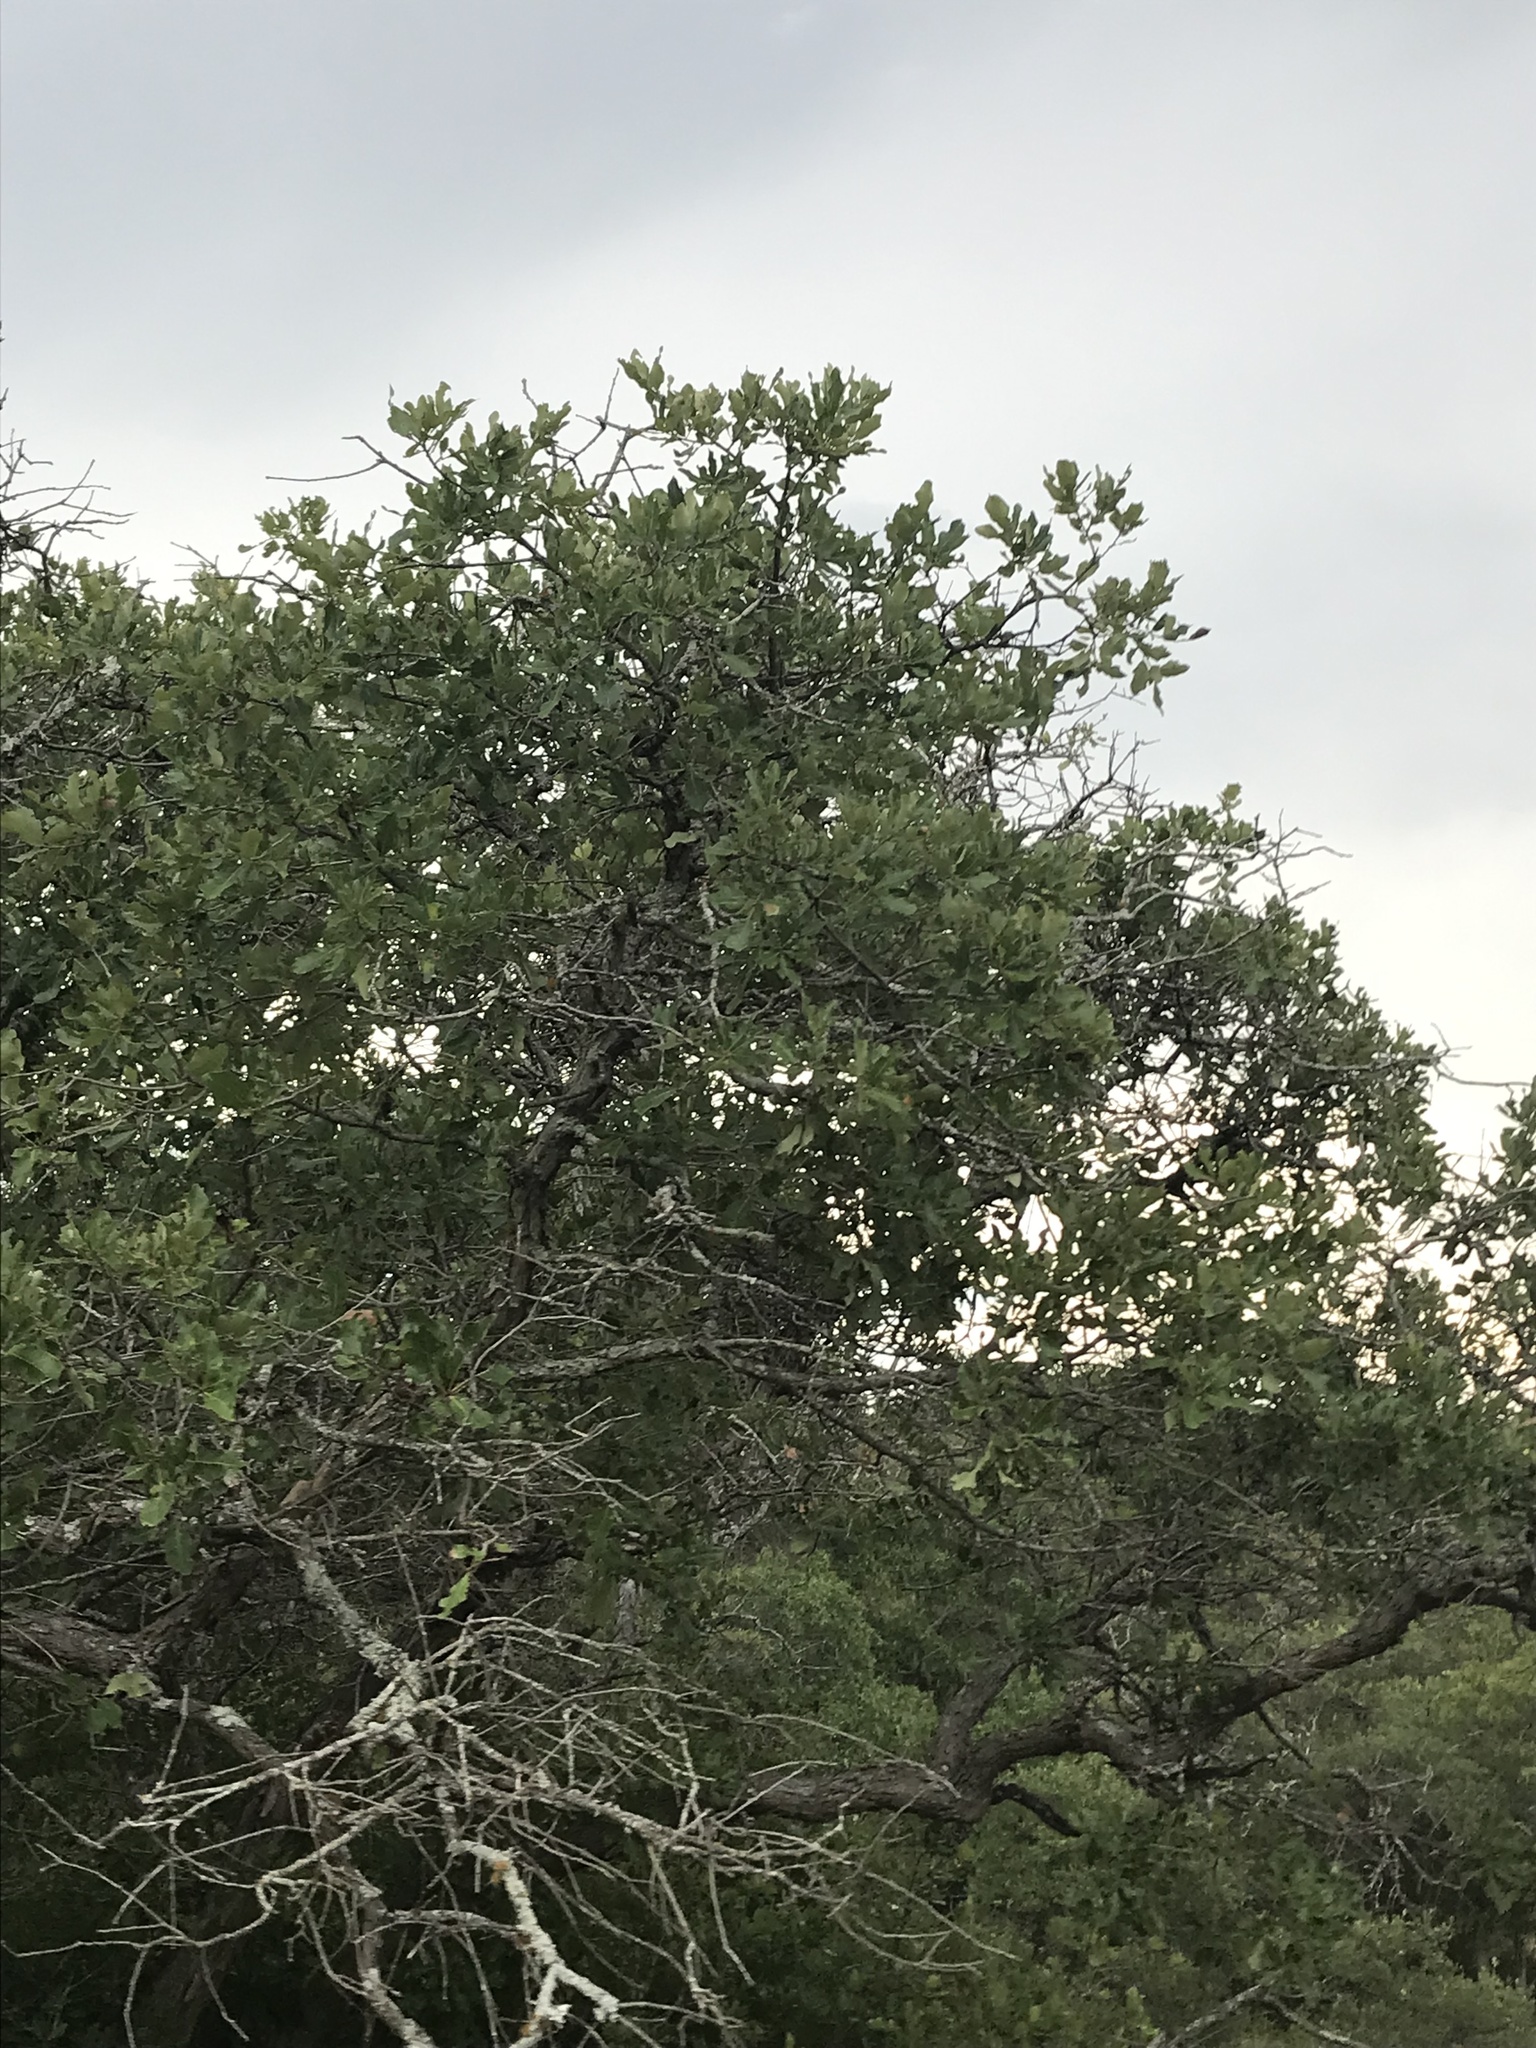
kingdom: Plantae
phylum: Tracheophyta
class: Magnoliopsida
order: Fagales
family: Fagaceae
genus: Quercus
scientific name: Quercus sinuata
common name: Durand oak
